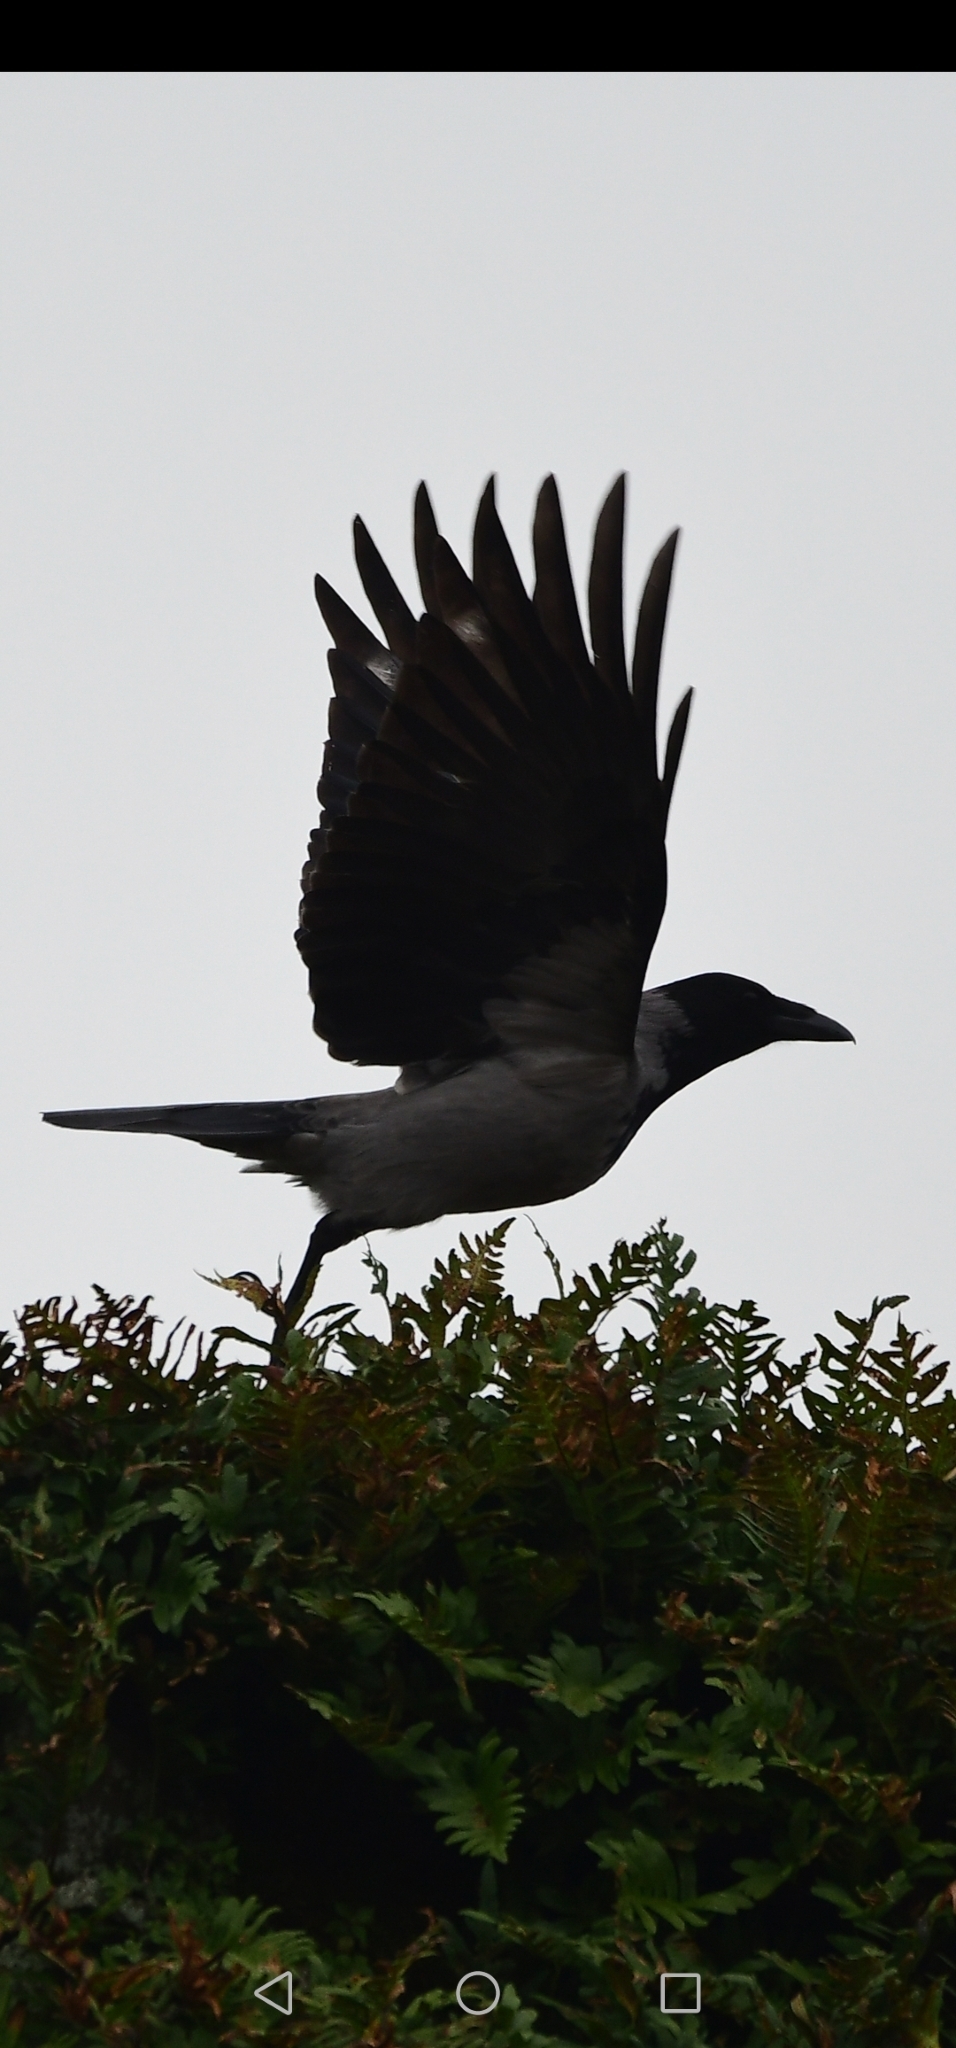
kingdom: Animalia
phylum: Chordata
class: Aves
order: Passeriformes
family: Corvidae
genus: Corvus
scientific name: Corvus cornix
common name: Hooded crow
